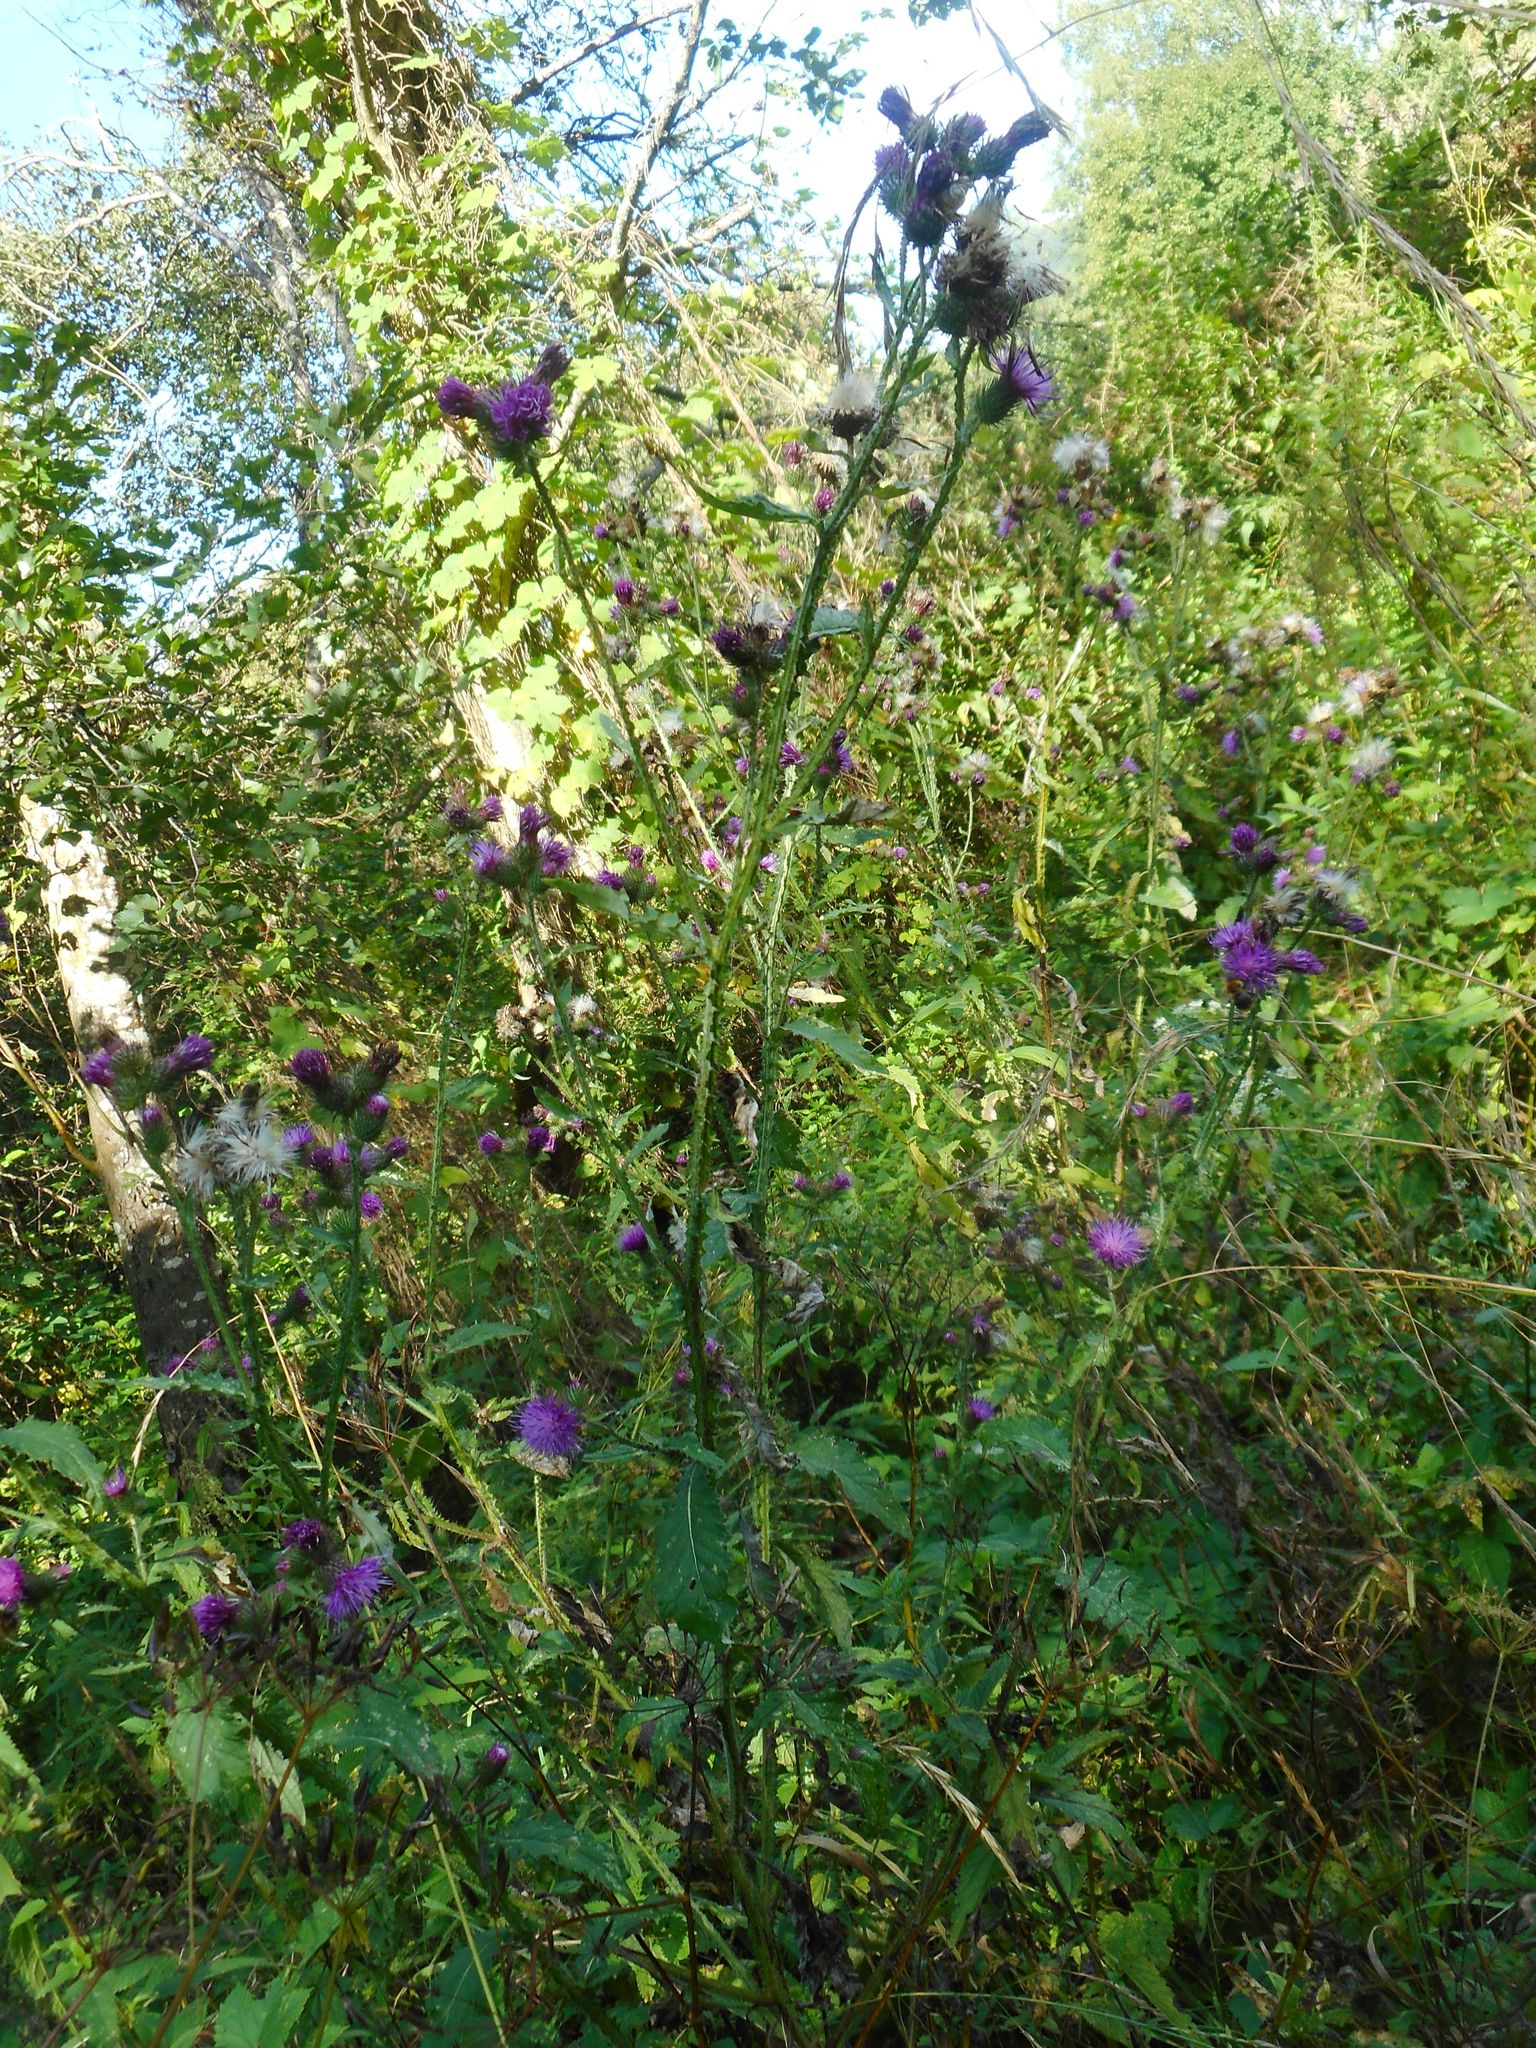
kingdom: Plantae
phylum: Tracheophyta
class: Magnoliopsida
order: Asterales
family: Asteraceae
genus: Carduus
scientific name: Carduus crispus
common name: Welted thistle
